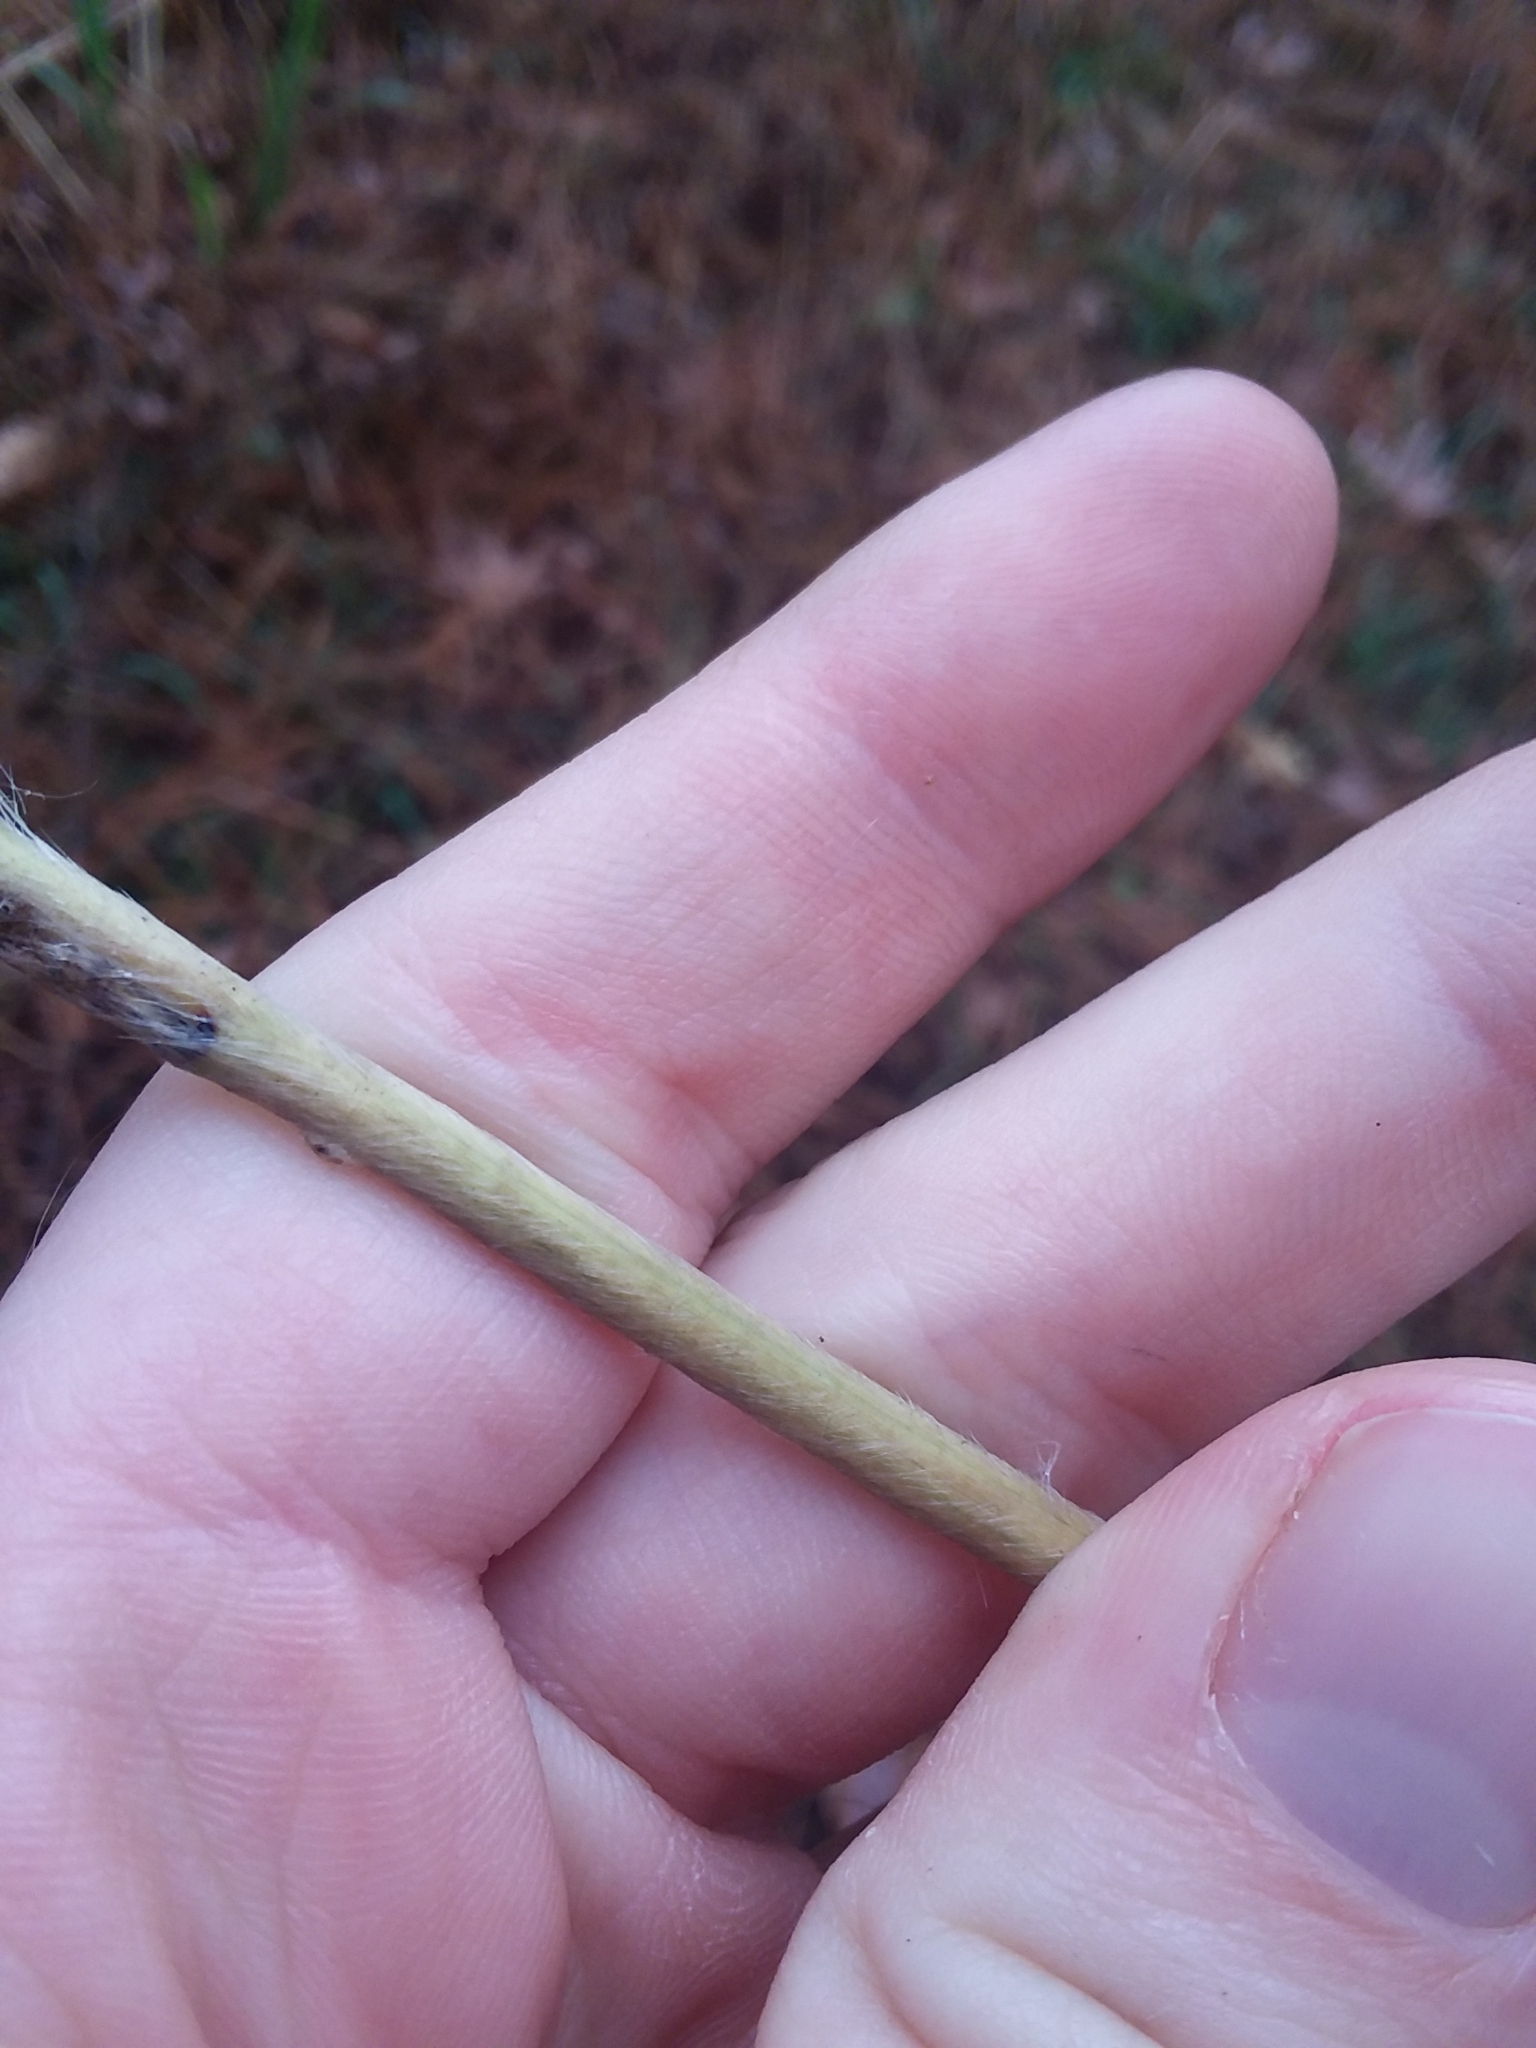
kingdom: Plantae
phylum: Tracheophyta
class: Liliopsida
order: Poales
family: Poaceae
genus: Erianthus
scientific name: Erianthus giganteus
